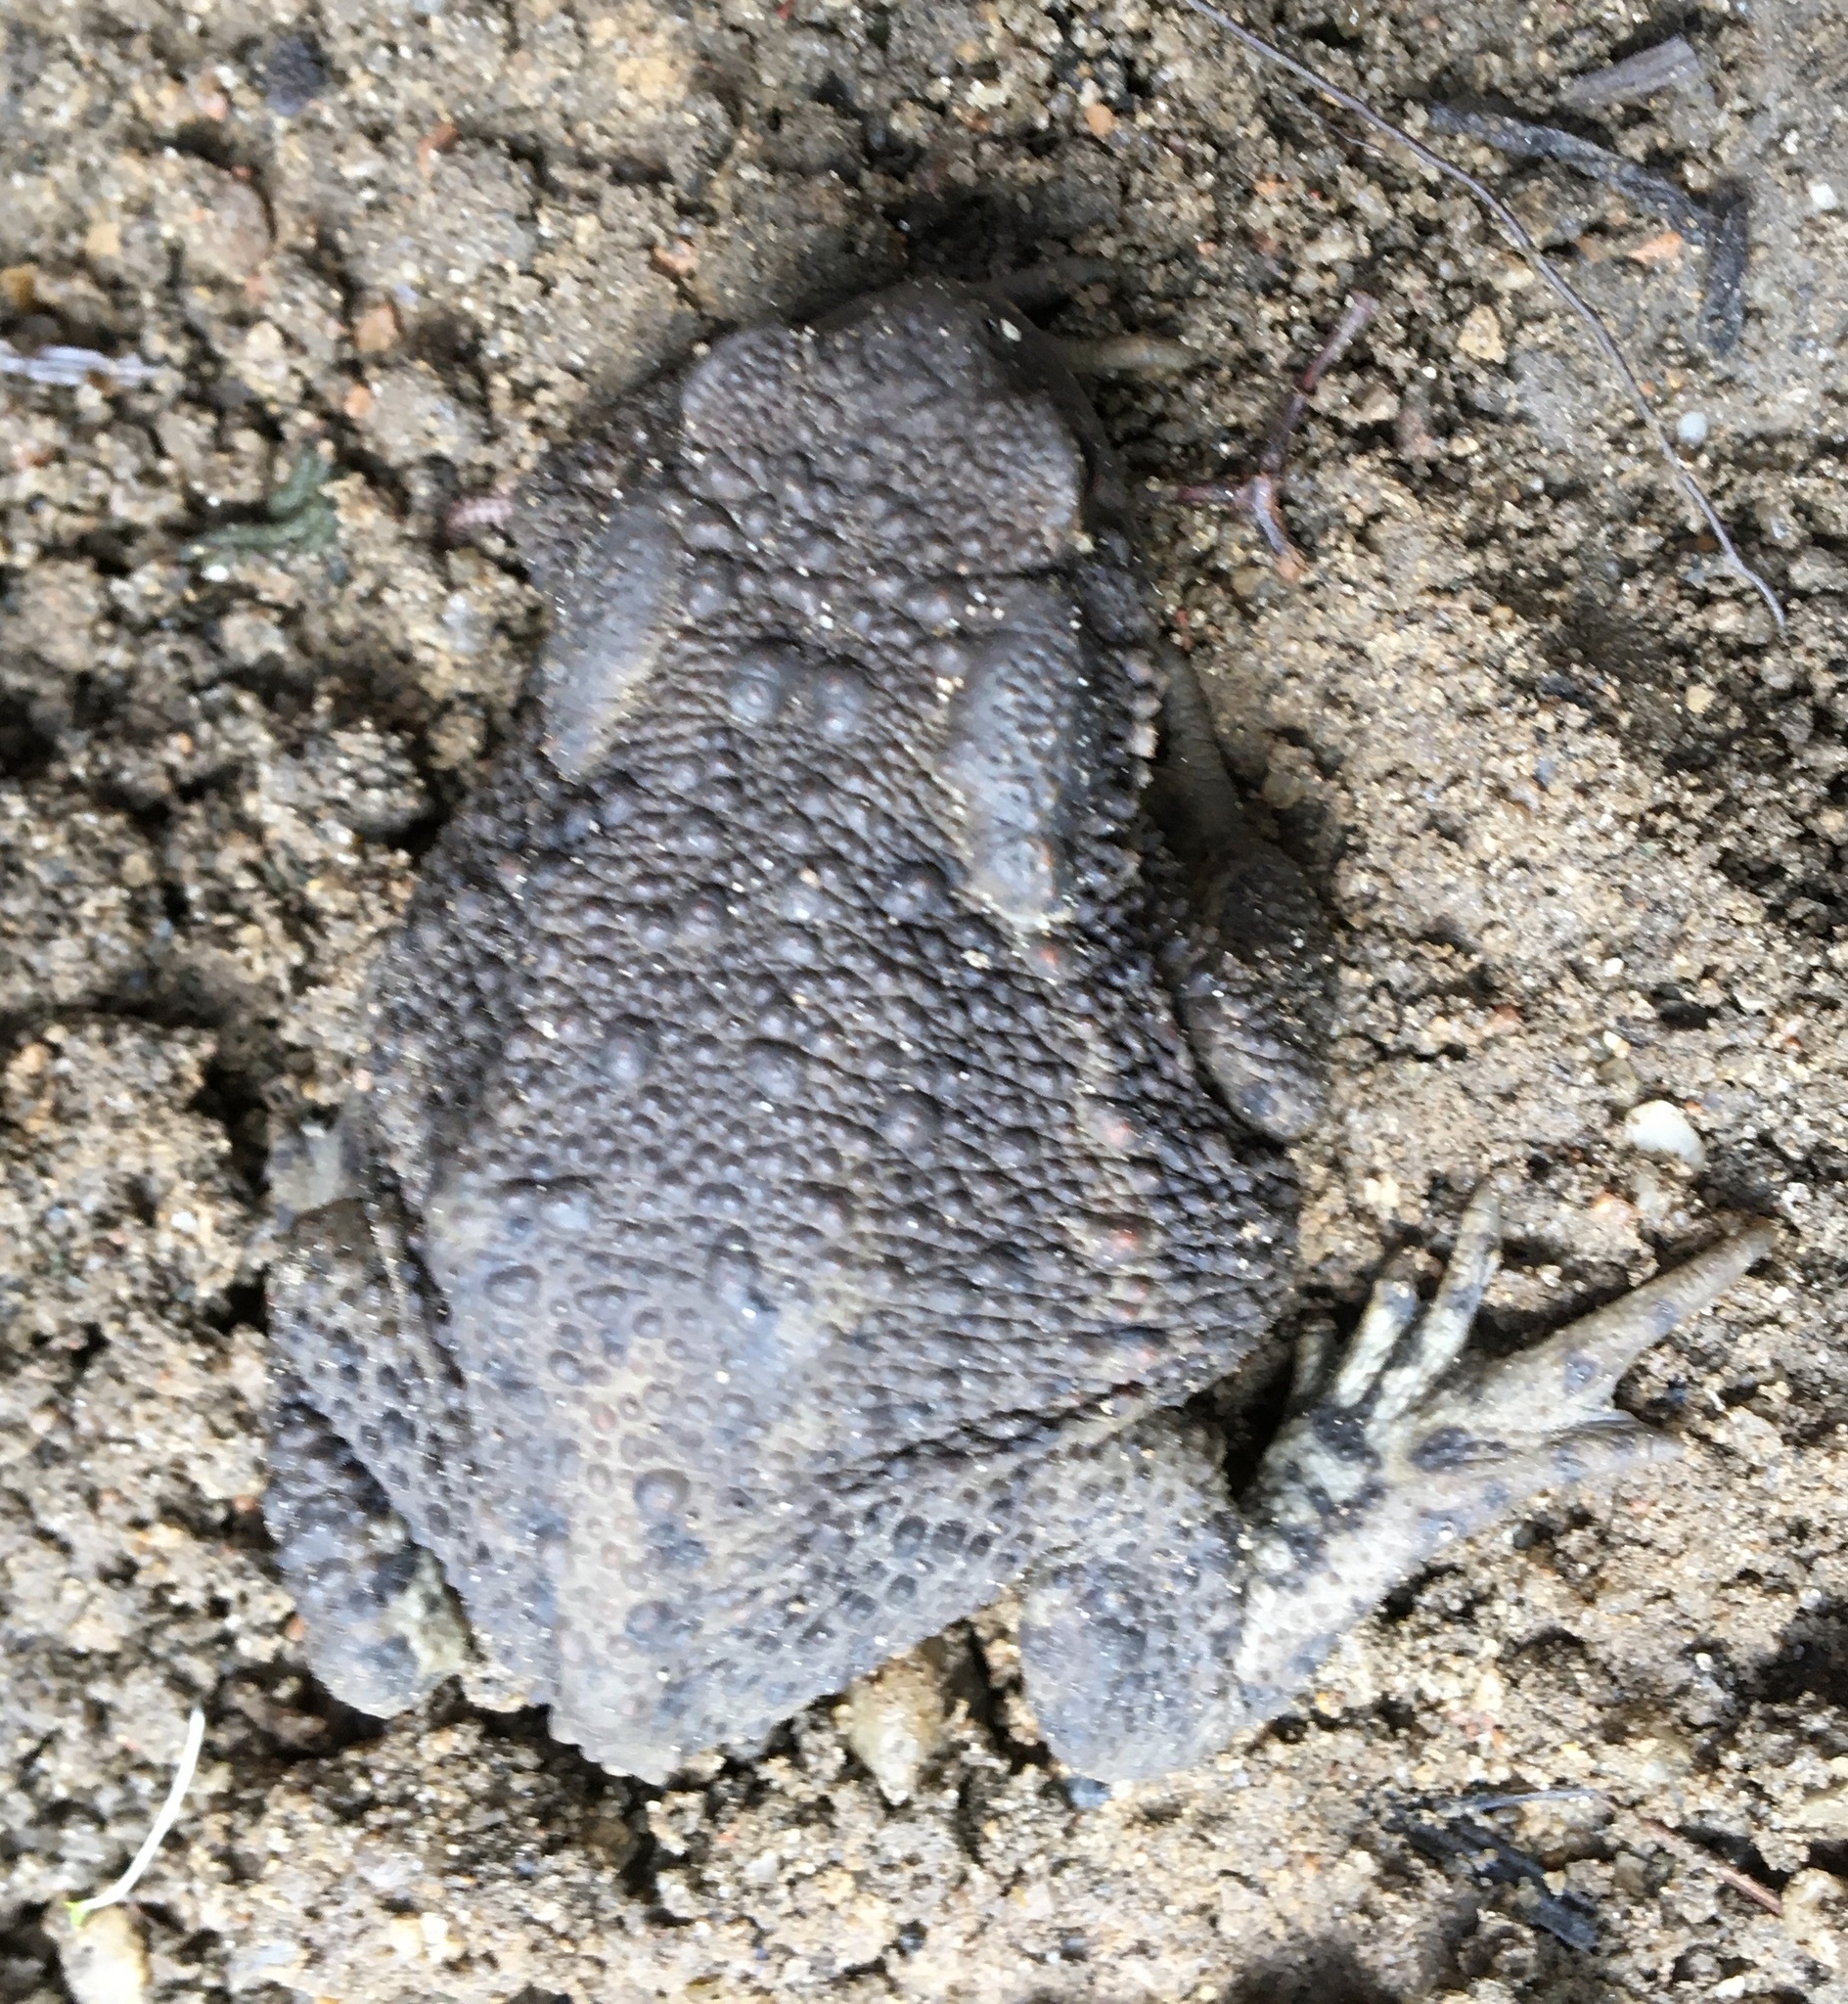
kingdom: Animalia
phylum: Chordata
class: Amphibia
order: Anura
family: Bufonidae
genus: Bufo
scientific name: Bufo bufo
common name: Common toad
